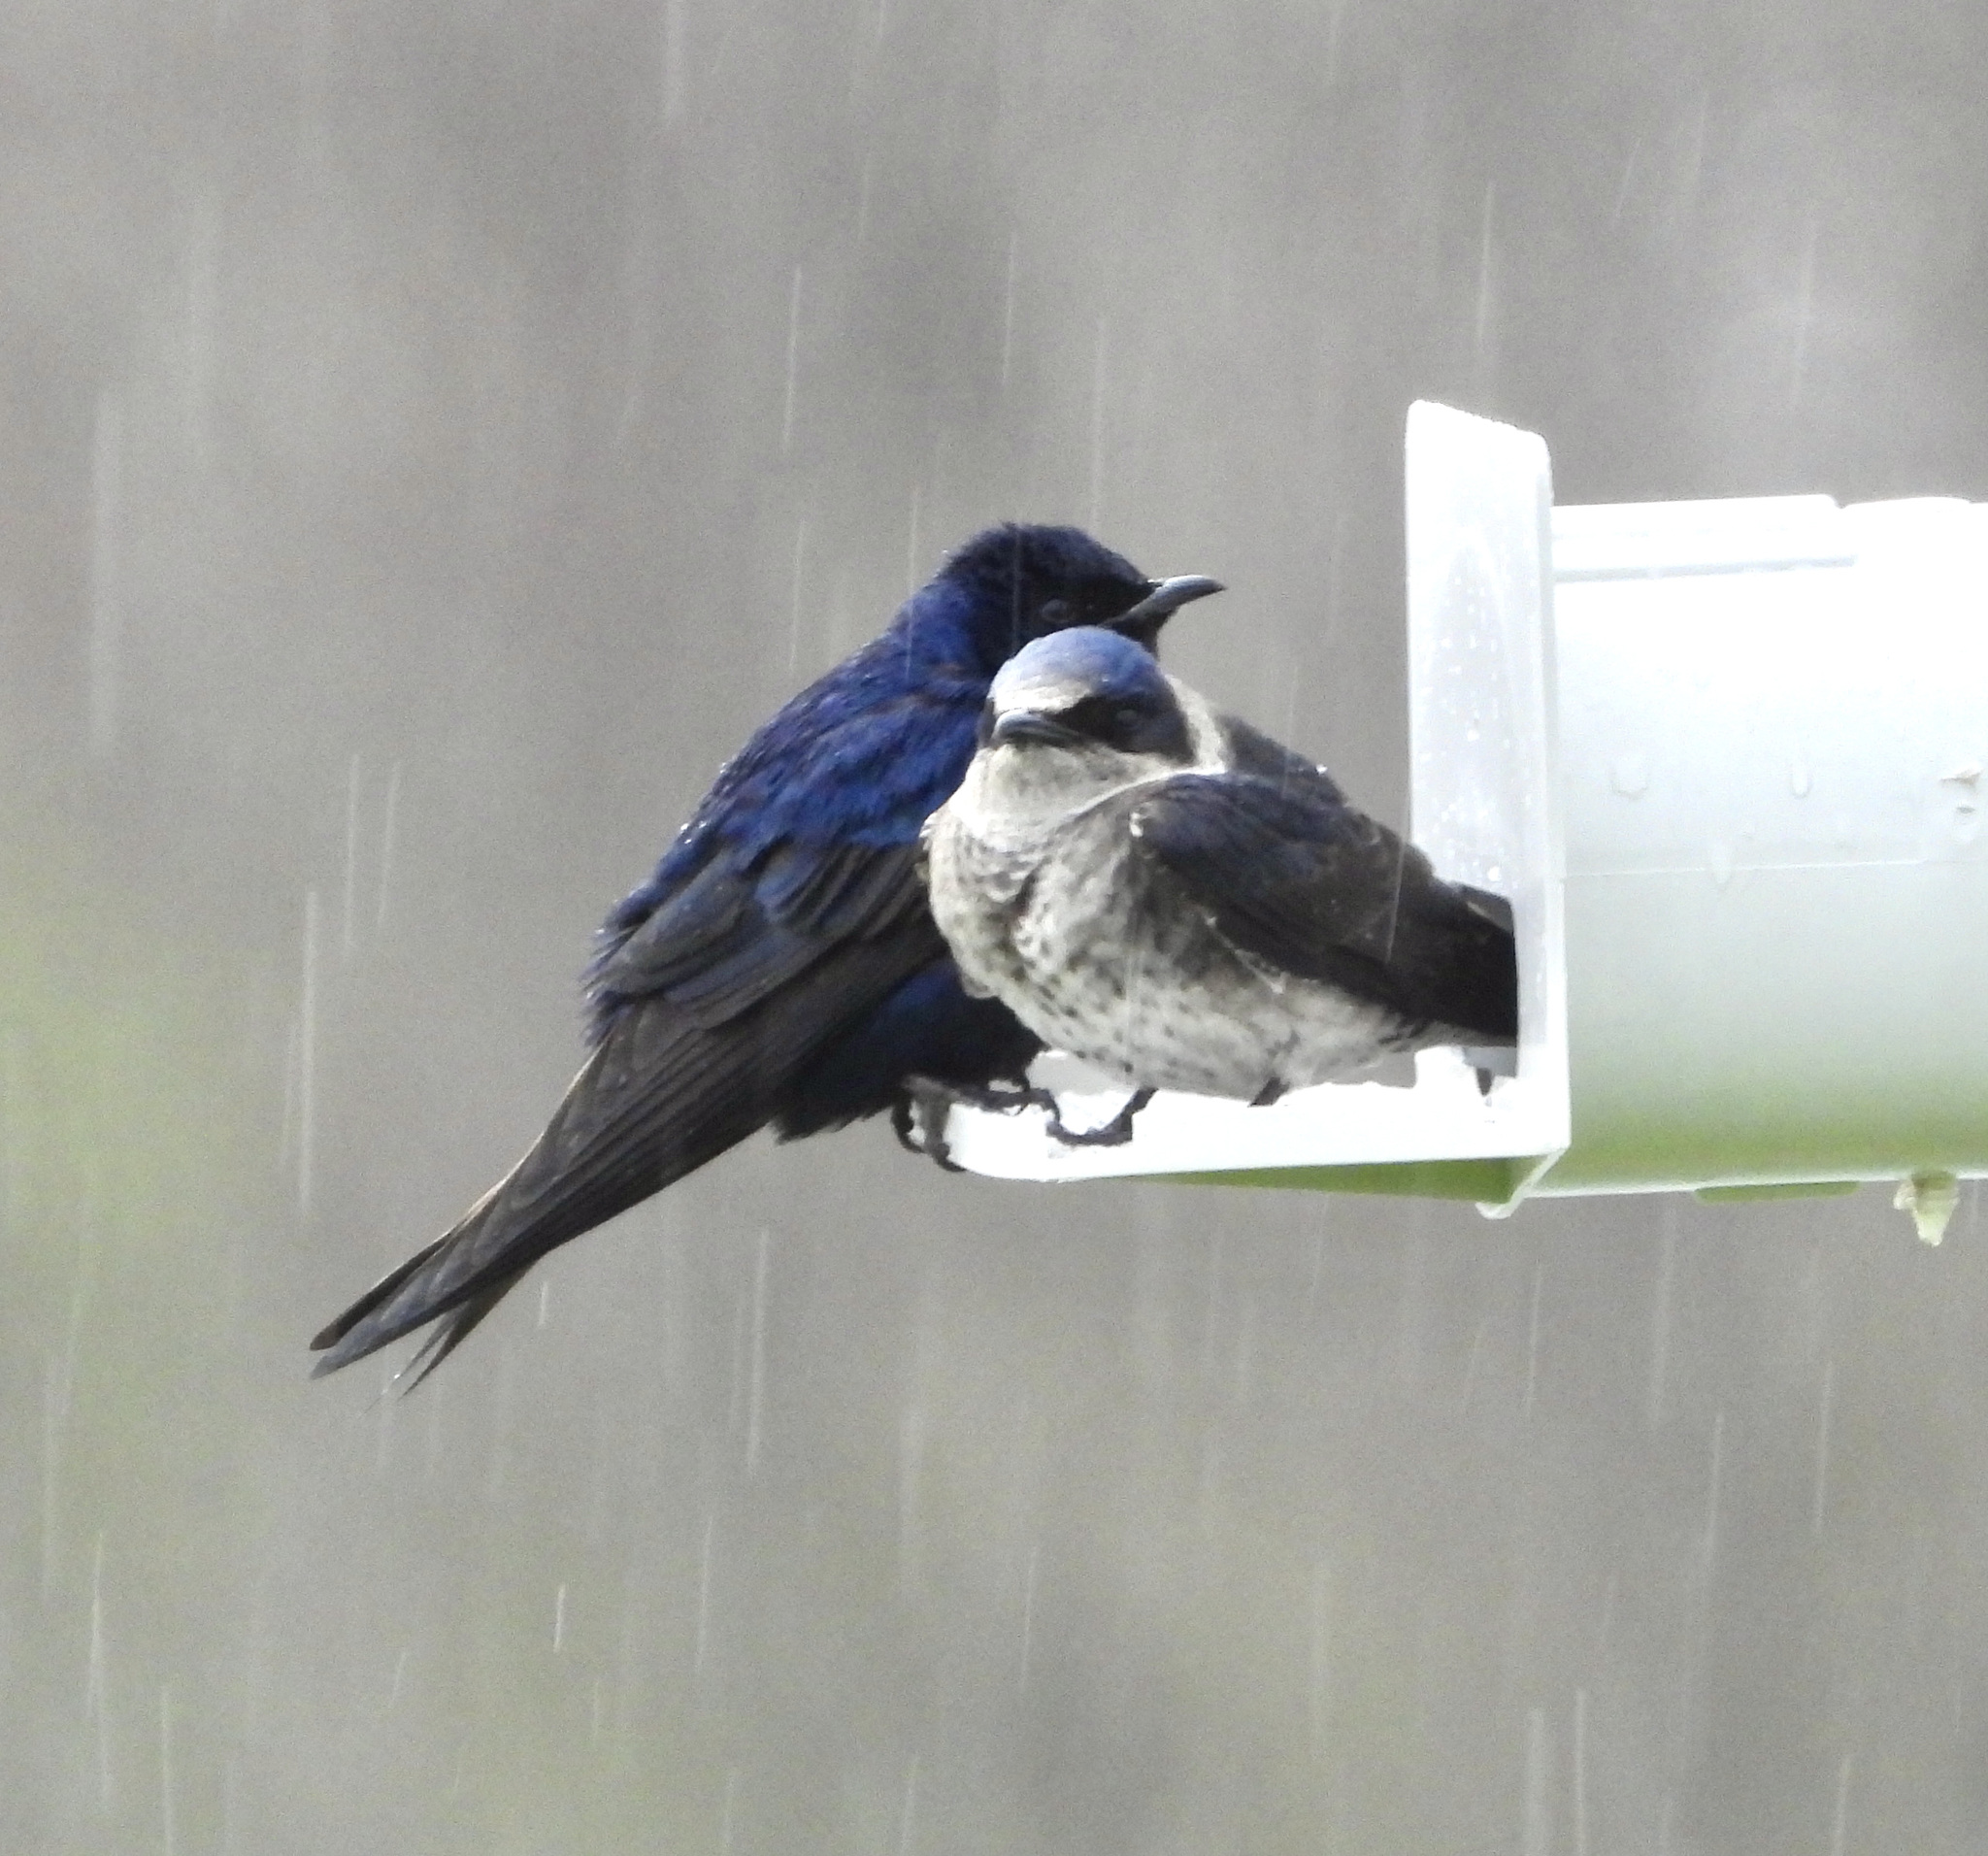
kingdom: Animalia
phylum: Chordata
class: Aves
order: Passeriformes
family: Hirundinidae
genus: Progne
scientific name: Progne subis
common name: Purple martin
